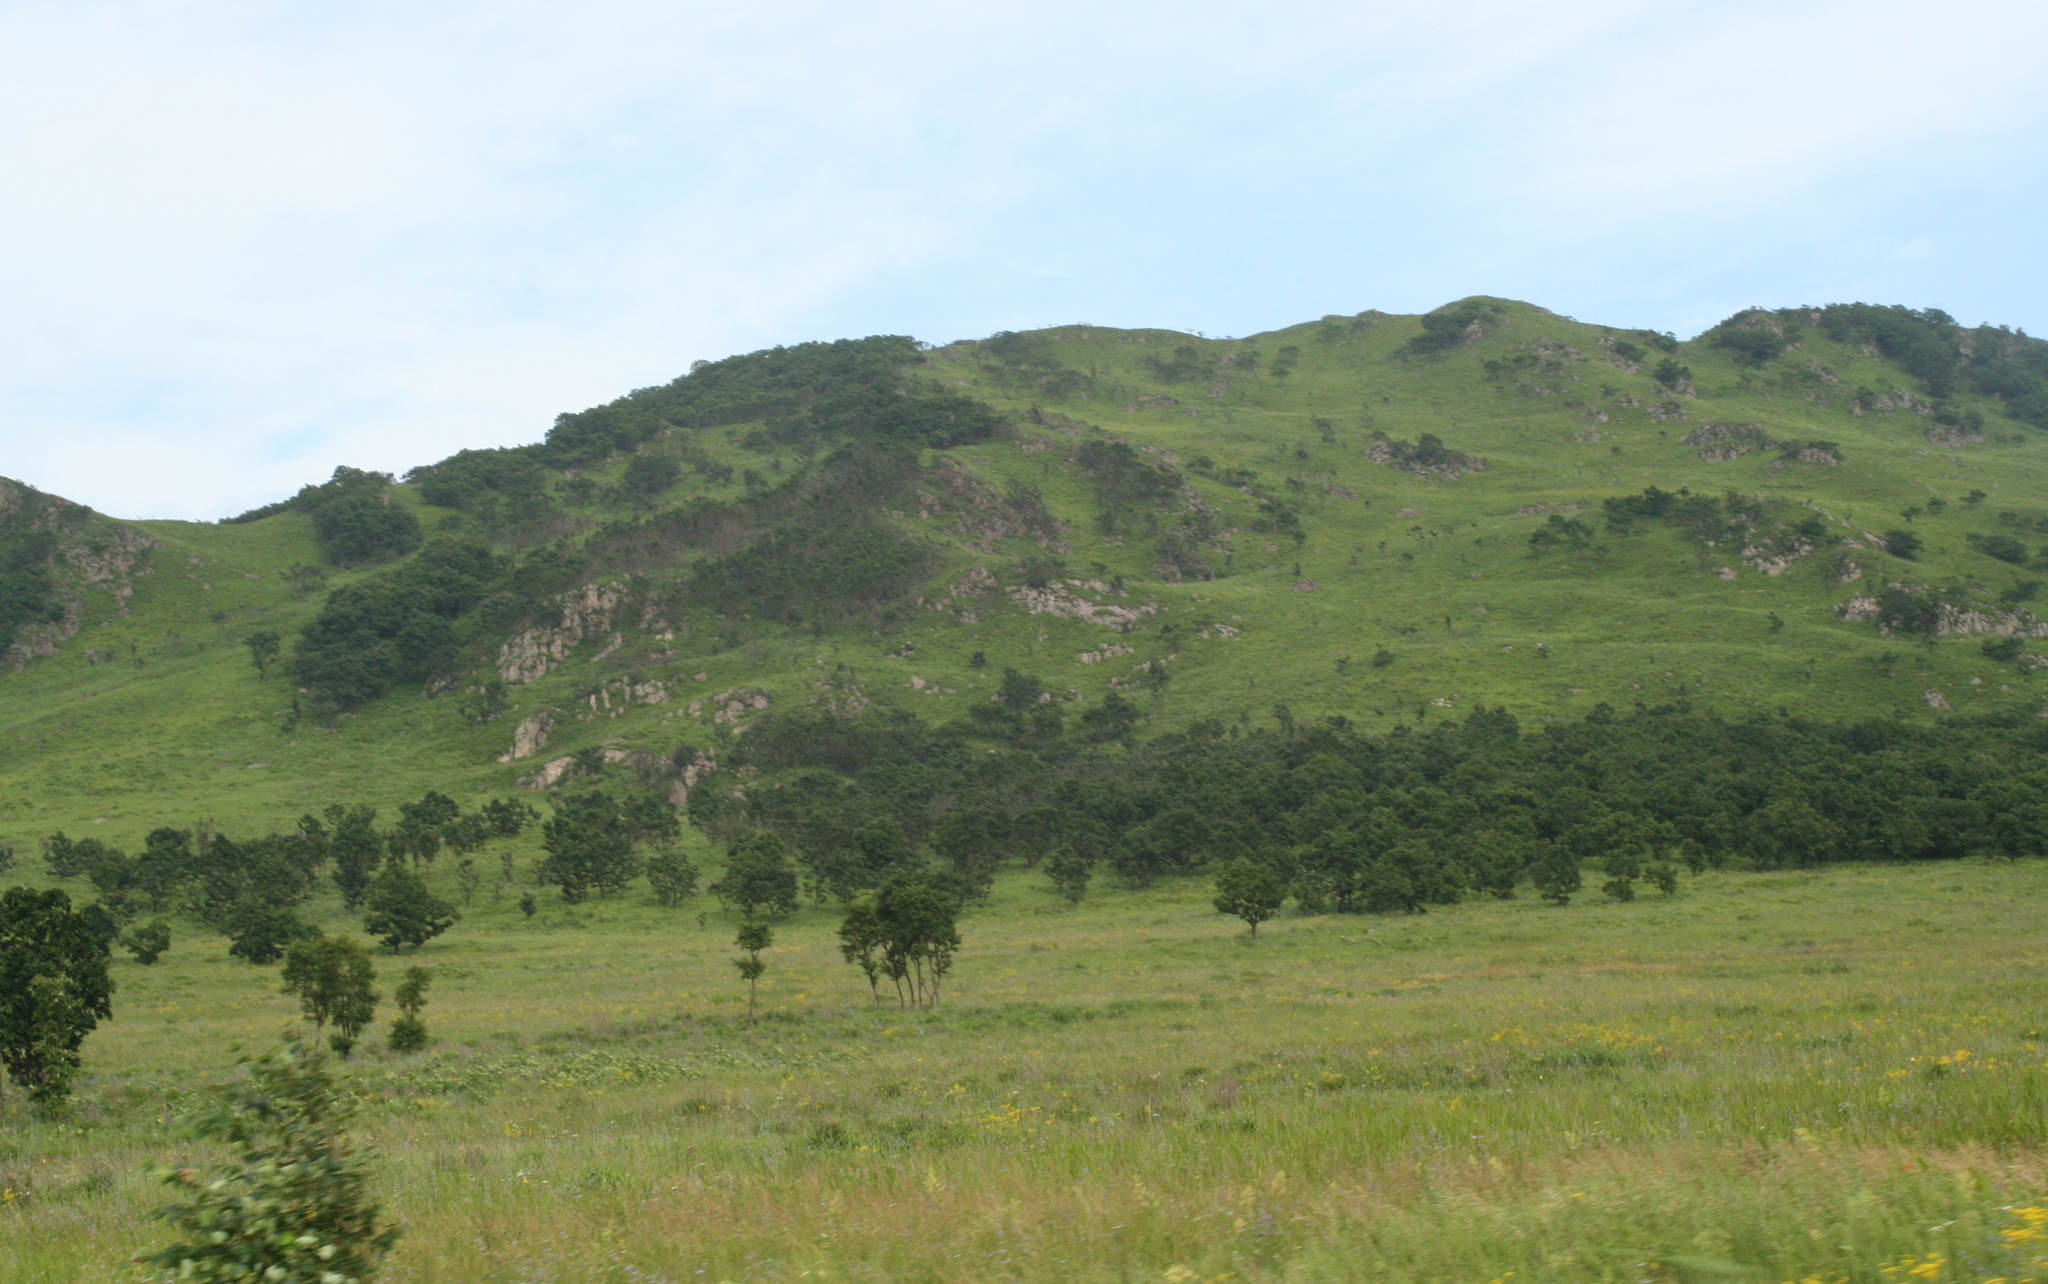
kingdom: Plantae
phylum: Tracheophyta
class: Magnoliopsida
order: Fagales
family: Fagaceae
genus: Quercus
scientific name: Quercus dentata
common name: Daimyo oak
